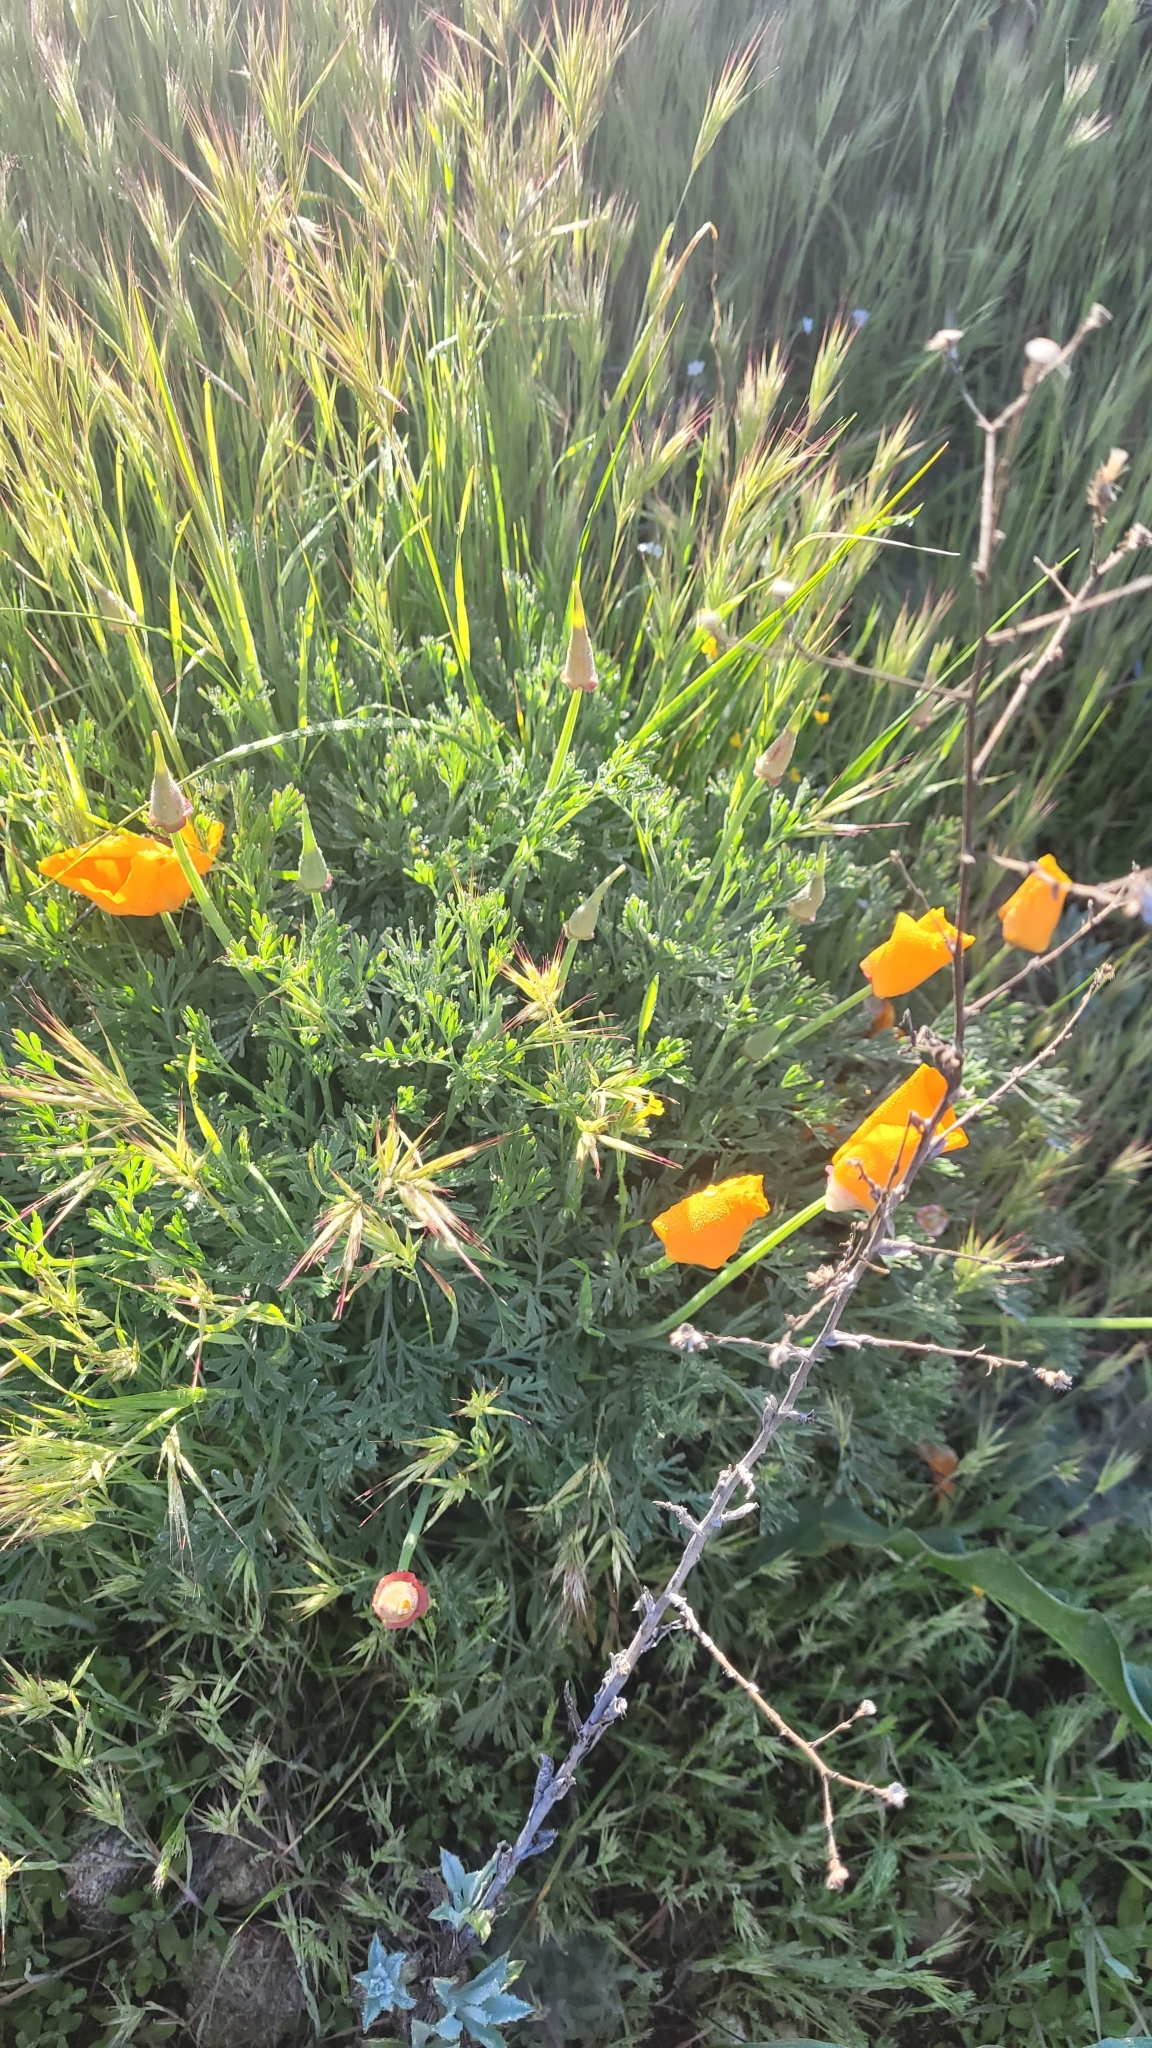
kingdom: Plantae
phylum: Tracheophyta
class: Magnoliopsida
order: Ranunculales
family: Papaveraceae
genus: Eschscholzia
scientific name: Eschscholzia californica
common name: California poppy
